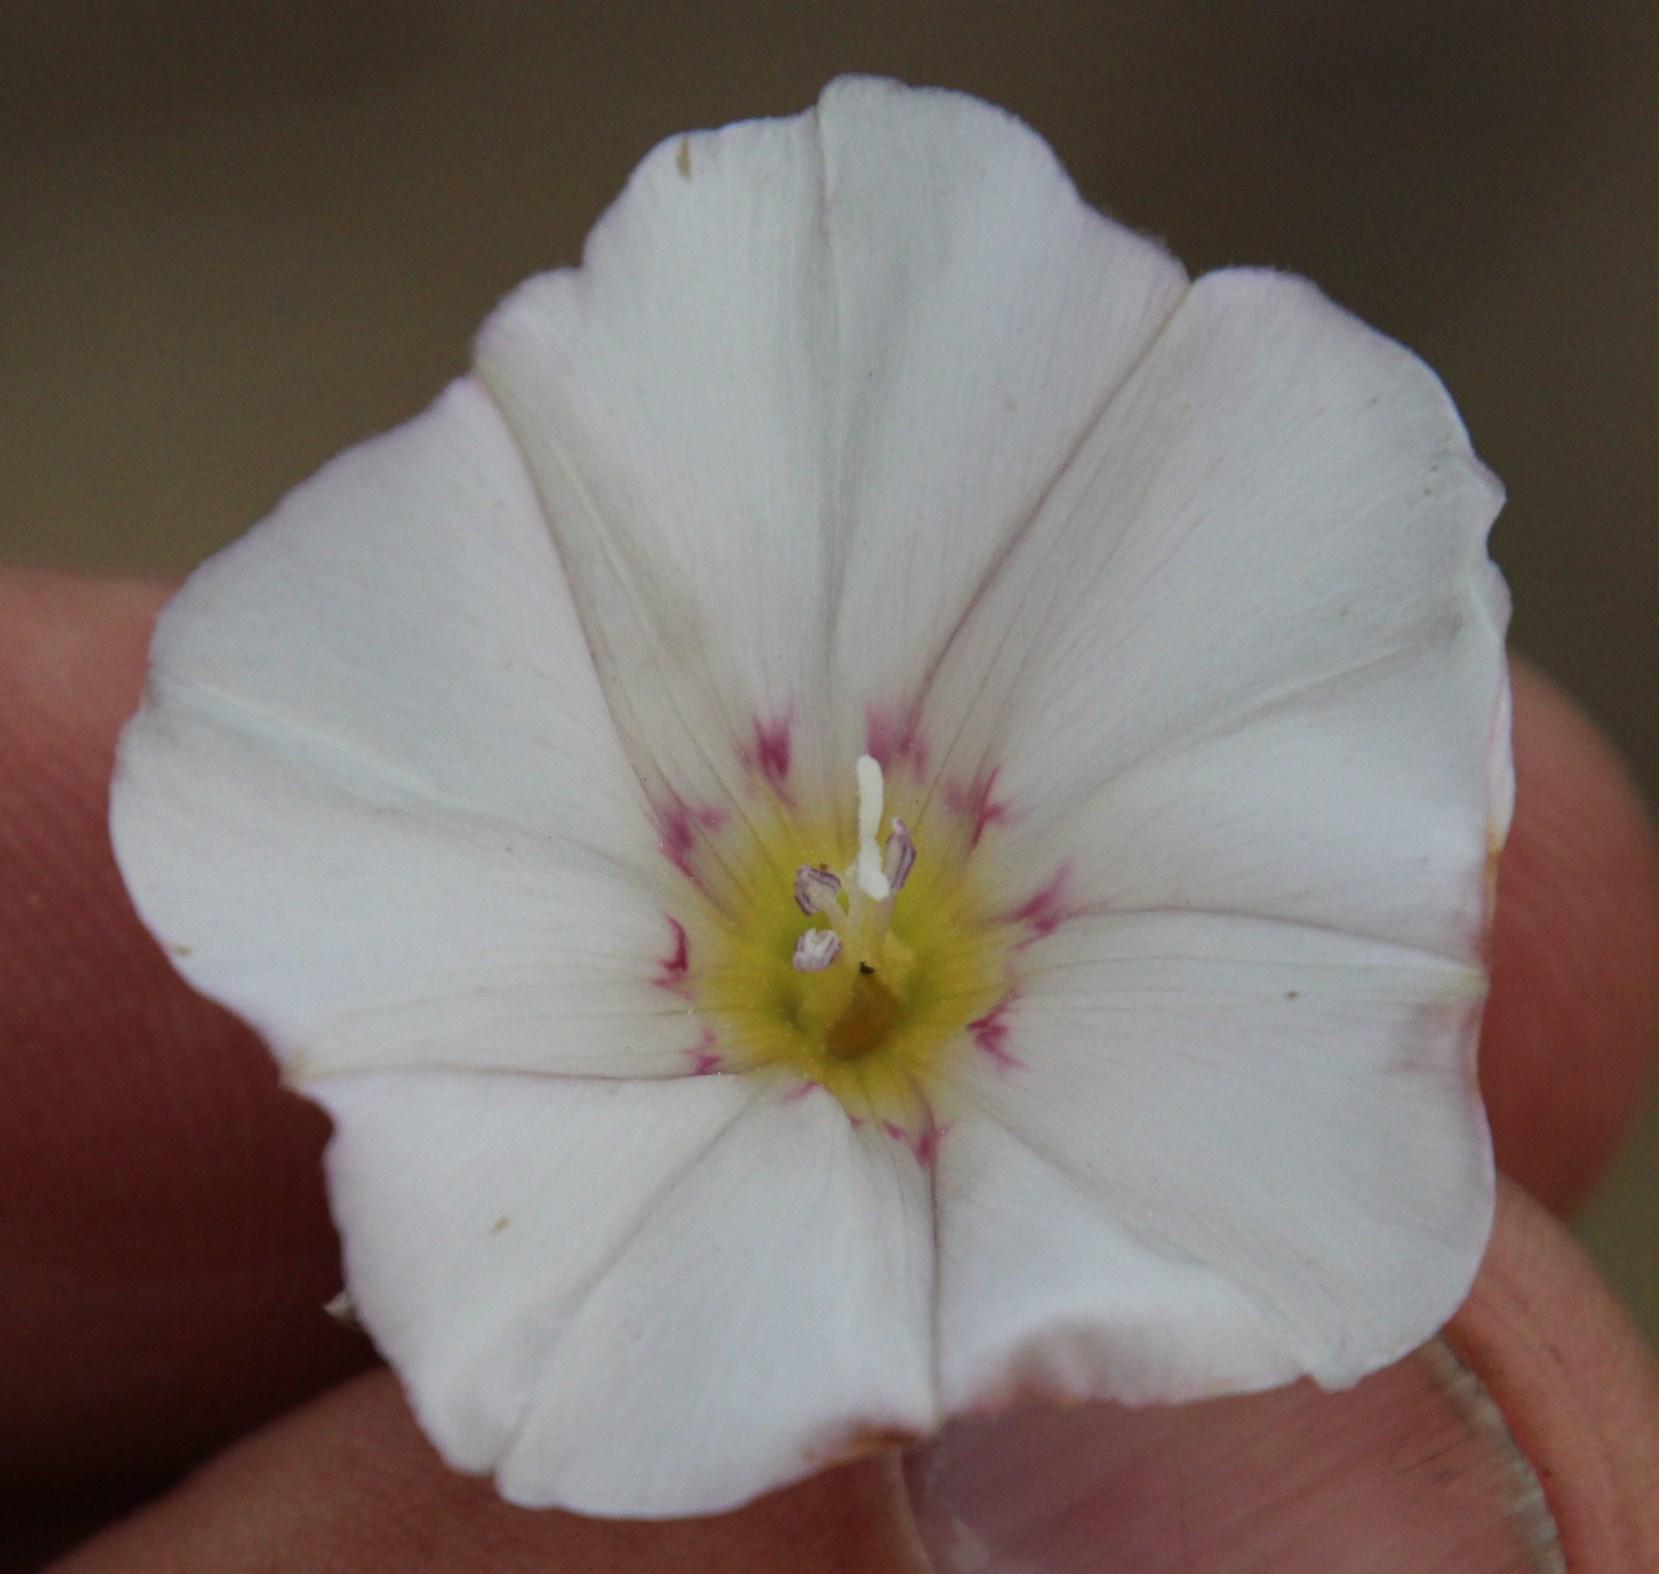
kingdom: Plantae
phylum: Tracheophyta
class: Magnoliopsida
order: Solanales
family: Convolvulaceae
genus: Convolvulus
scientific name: Convolvulus arvensis
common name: Field bindweed
